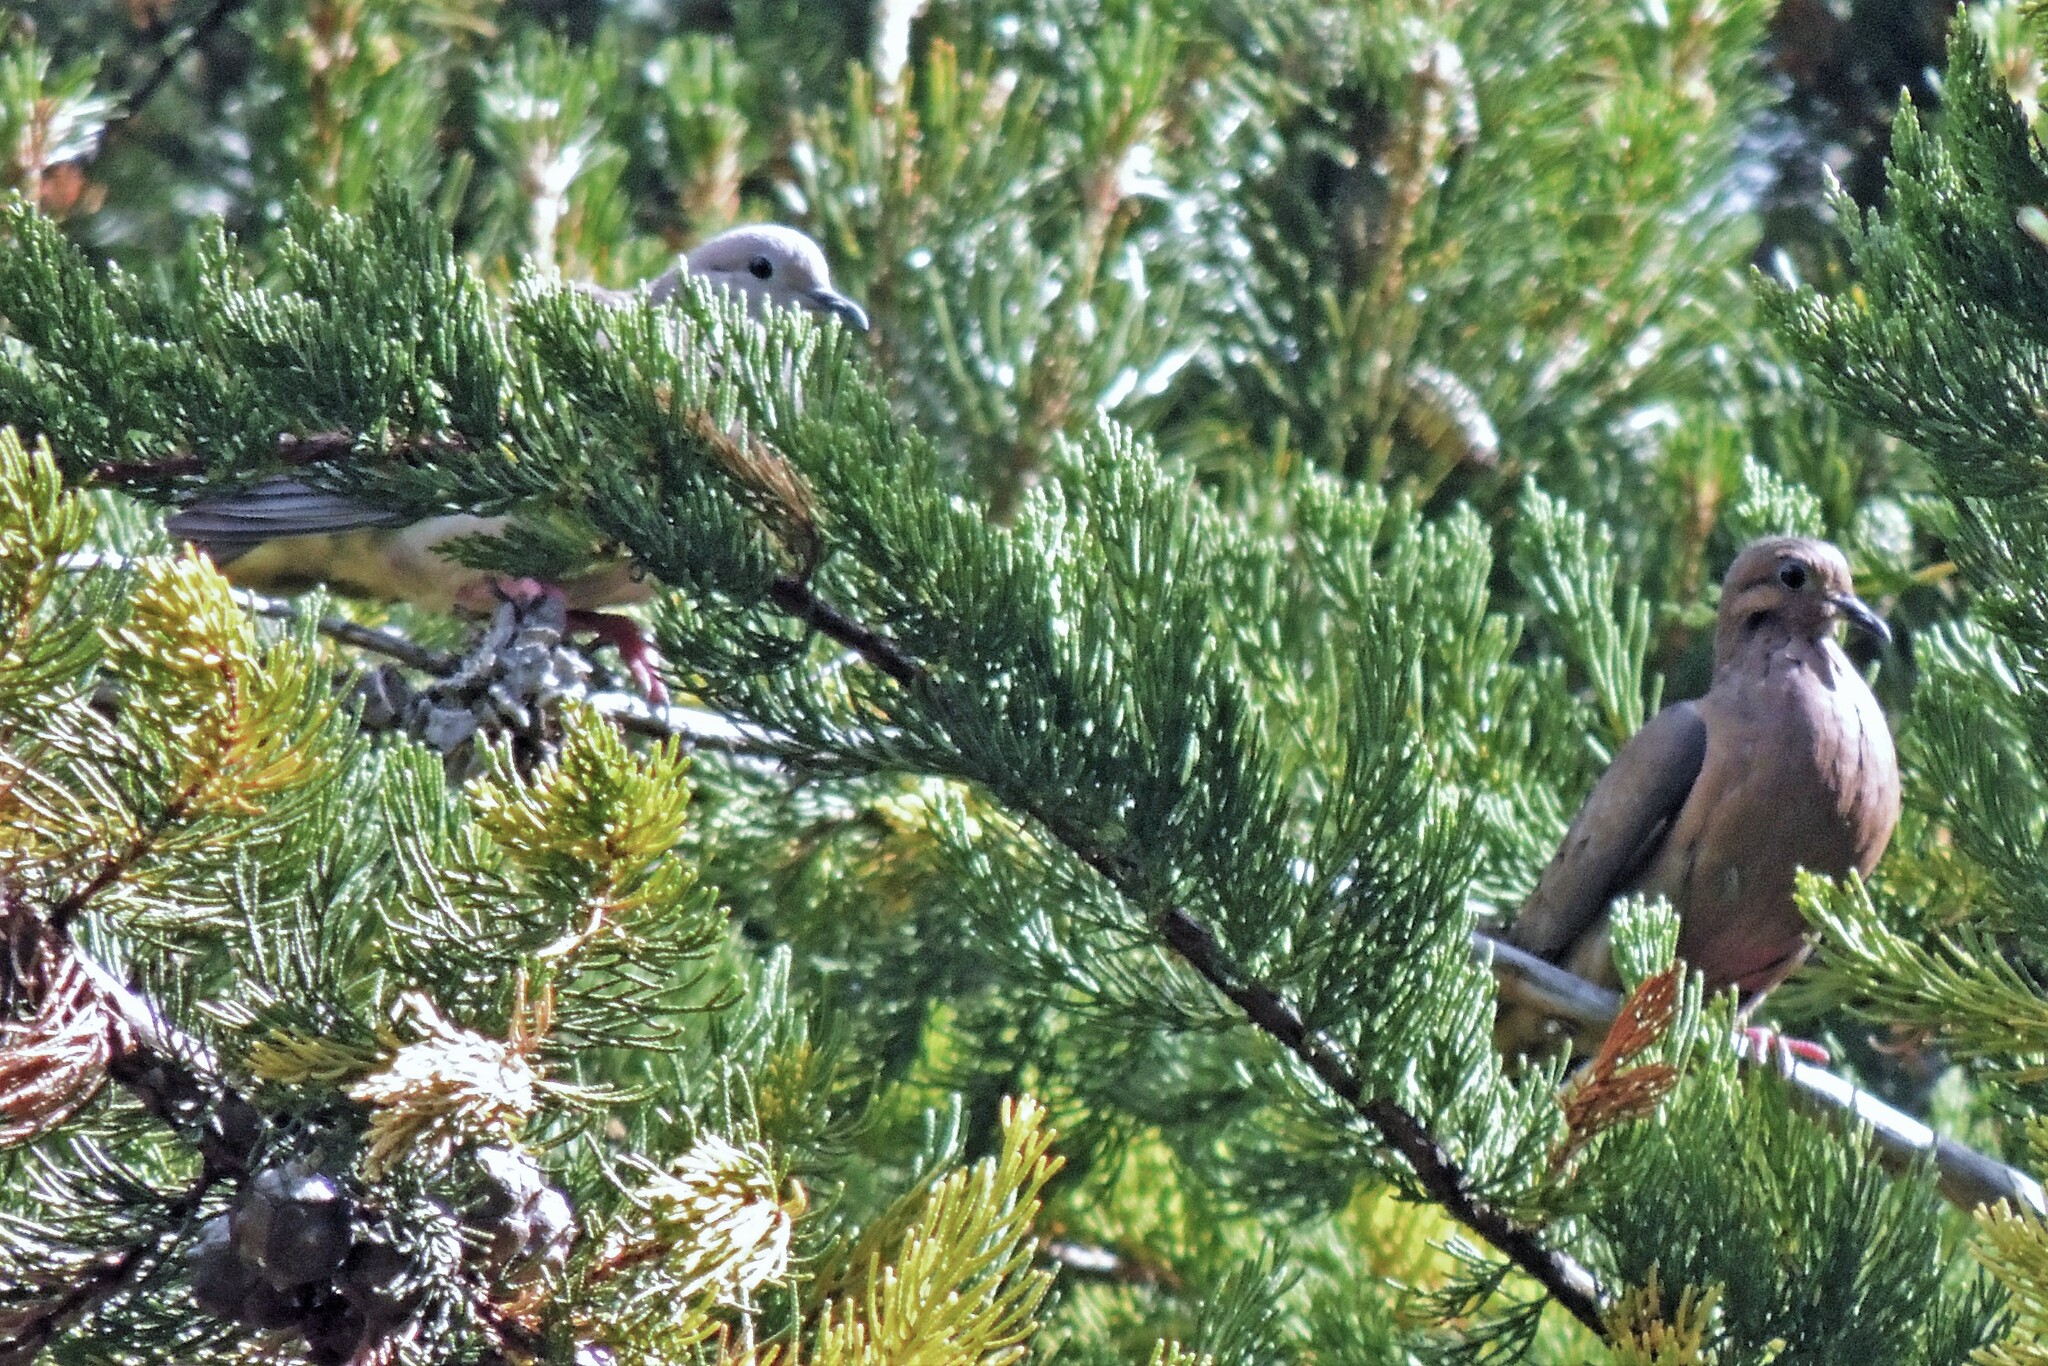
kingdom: Animalia
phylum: Chordata
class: Aves
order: Columbiformes
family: Columbidae
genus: Zenaida
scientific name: Zenaida auriculata
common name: Eared dove
